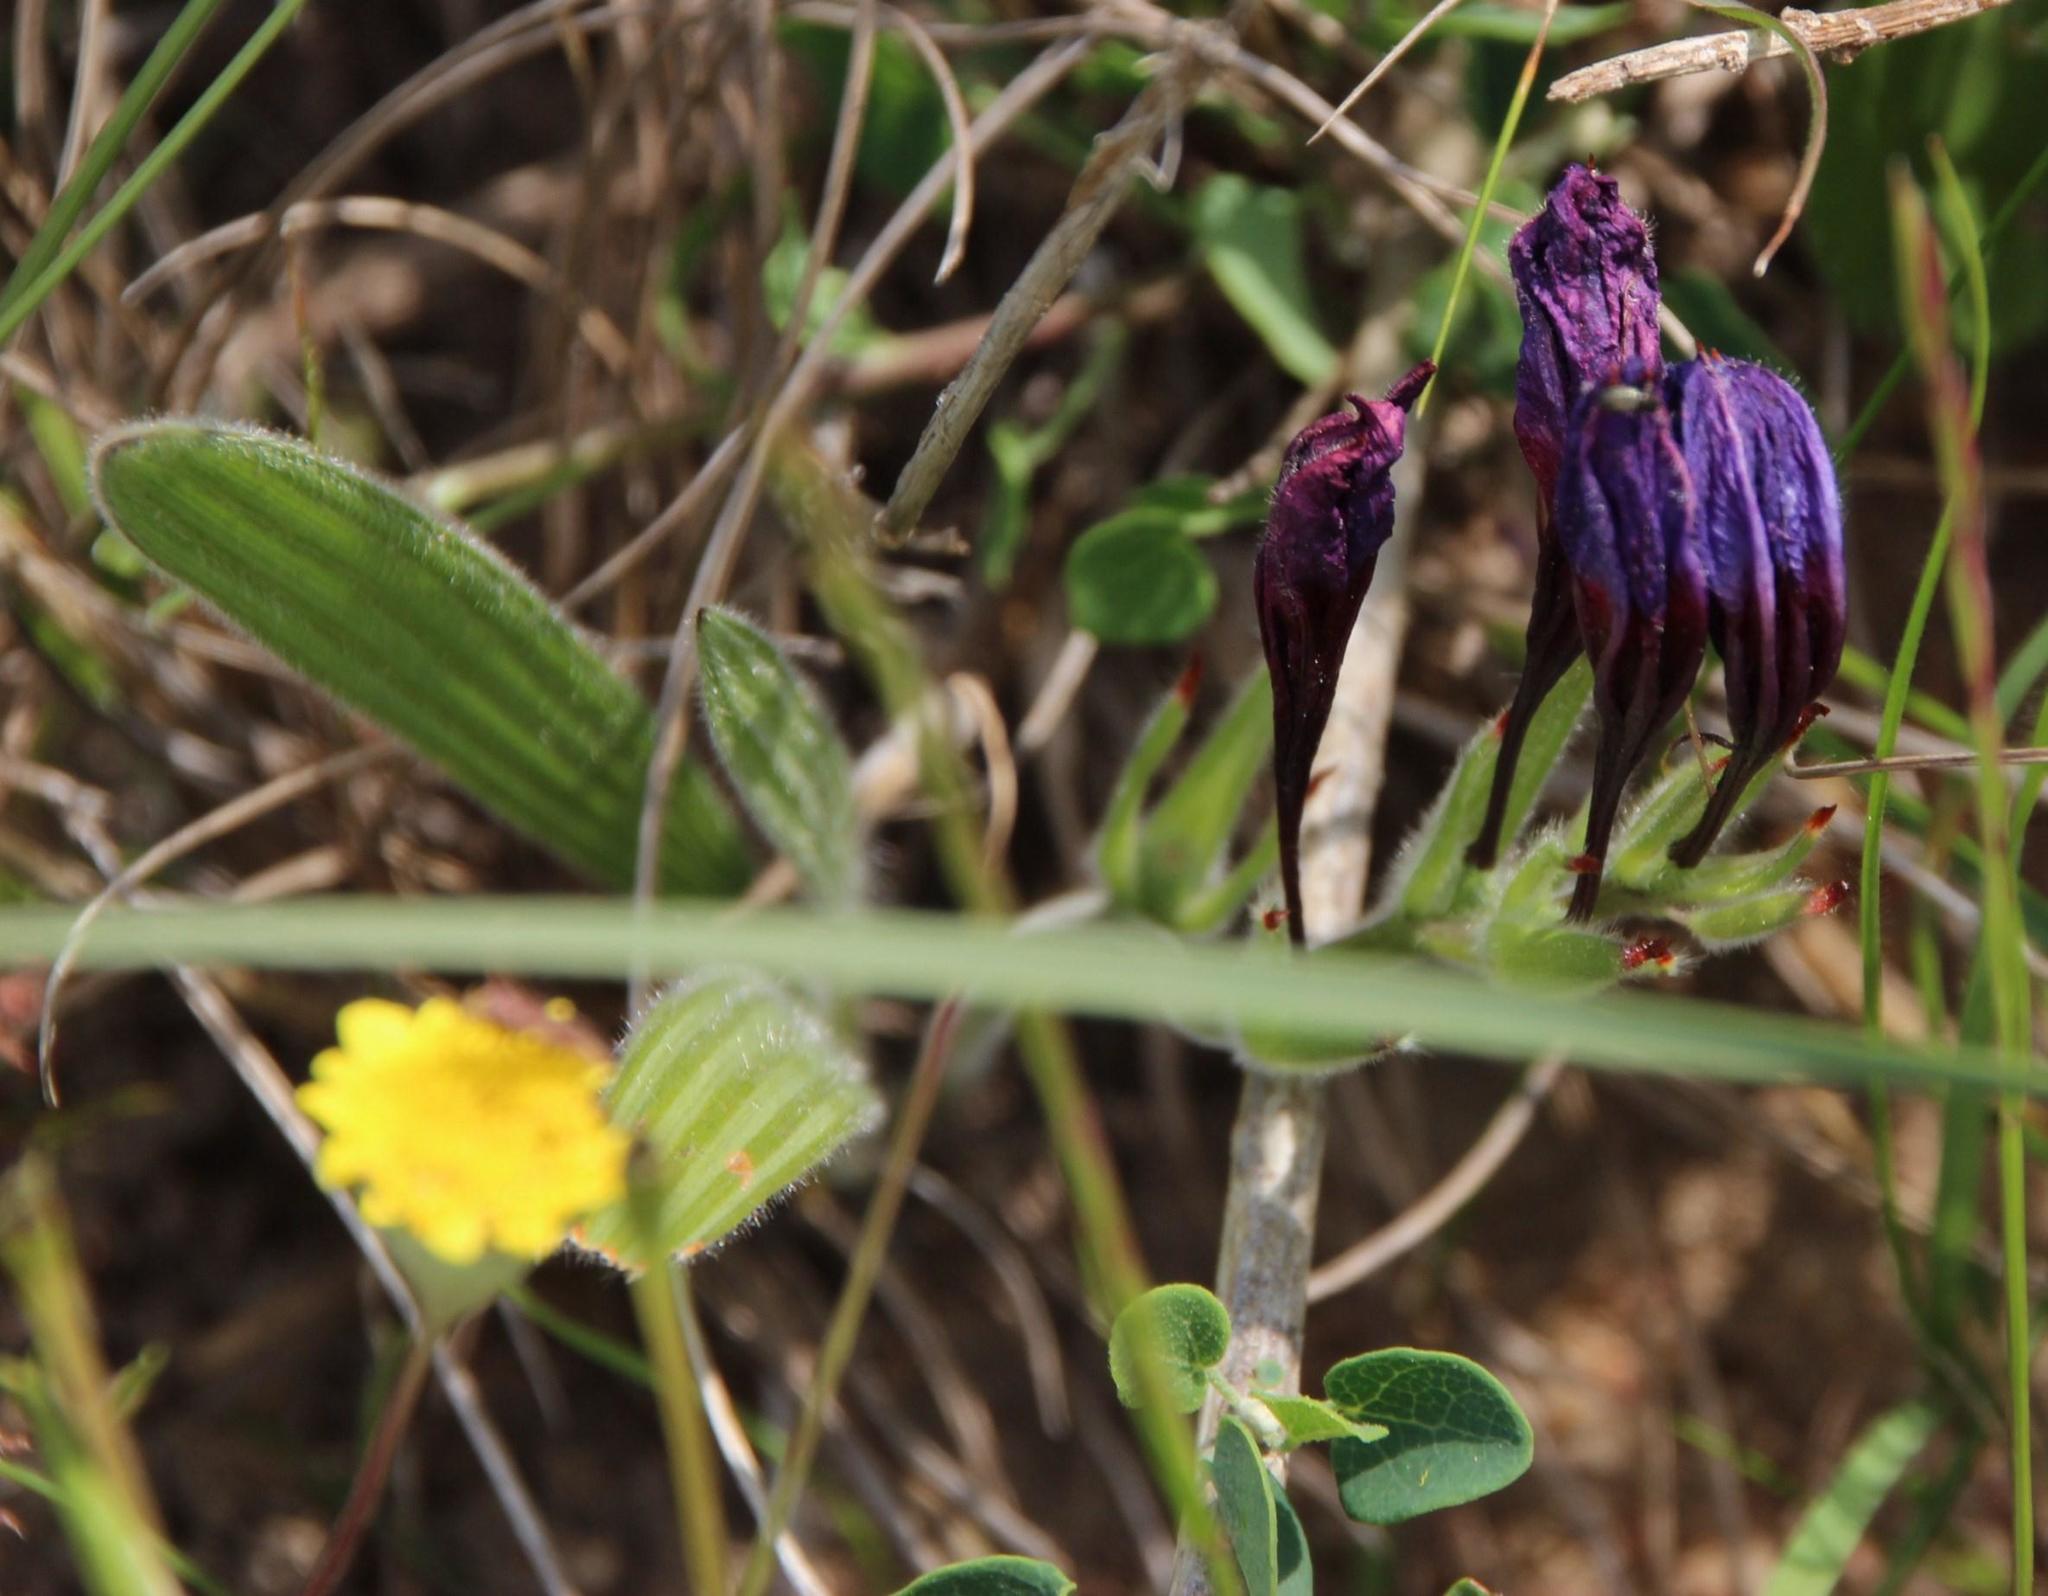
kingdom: Plantae
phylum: Tracheophyta
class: Liliopsida
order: Asparagales
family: Iridaceae
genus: Babiana
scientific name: Babiana rubrocyanea
